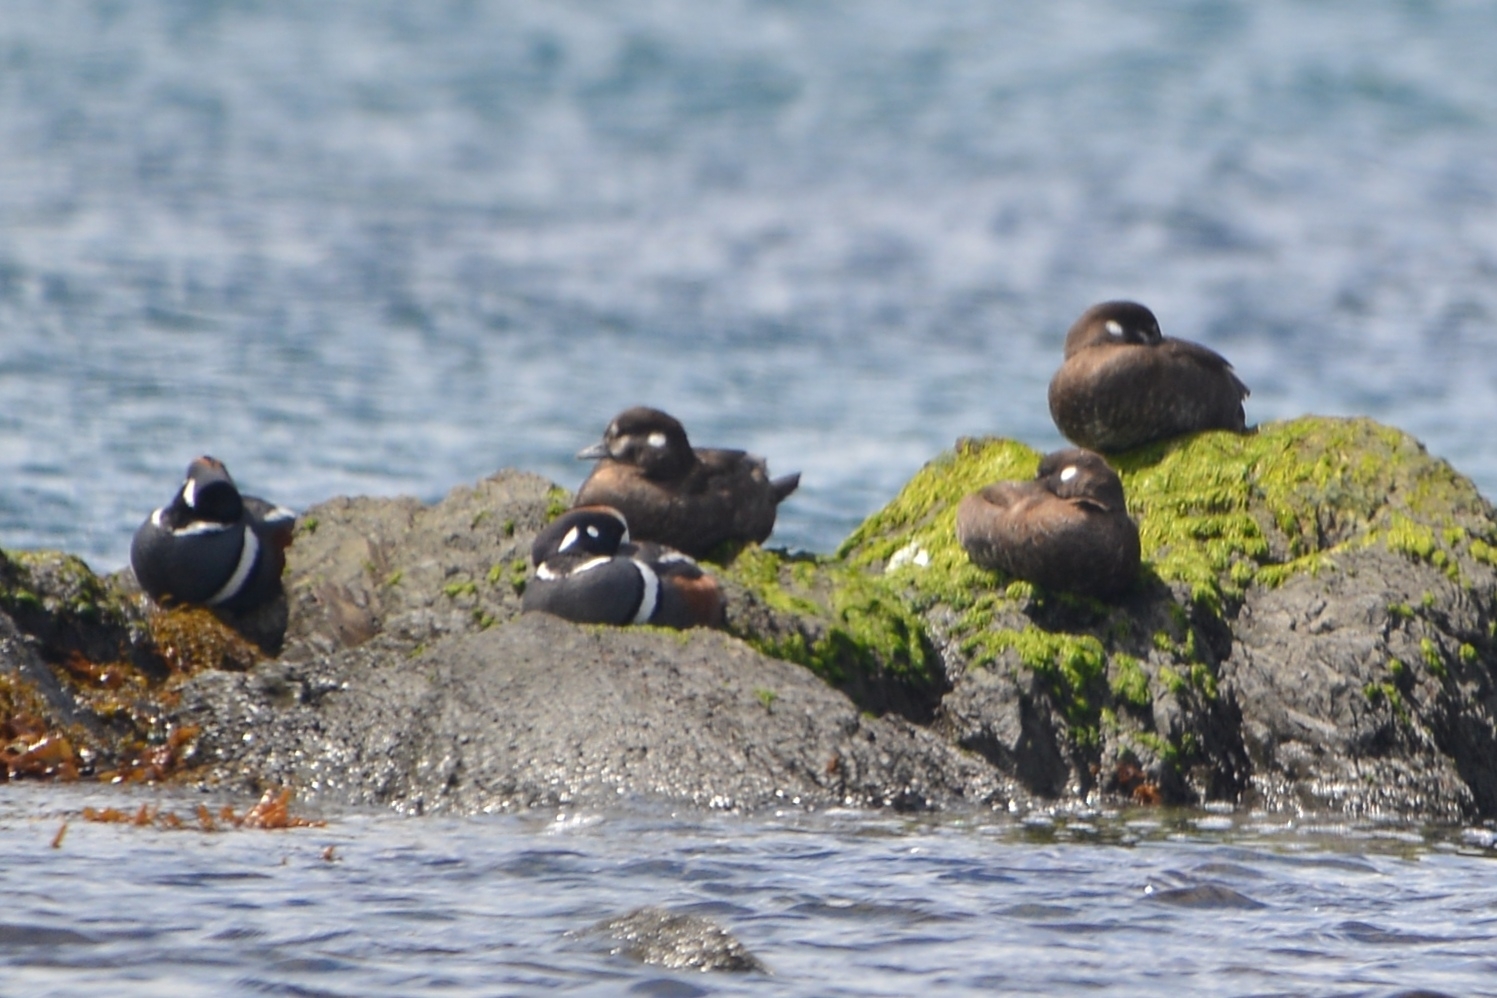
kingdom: Animalia
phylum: Chordata
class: Aves
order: Anseriformes
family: Anatidae
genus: Histrionicus
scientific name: Histrionicus histrionicus
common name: Harlequin duck
